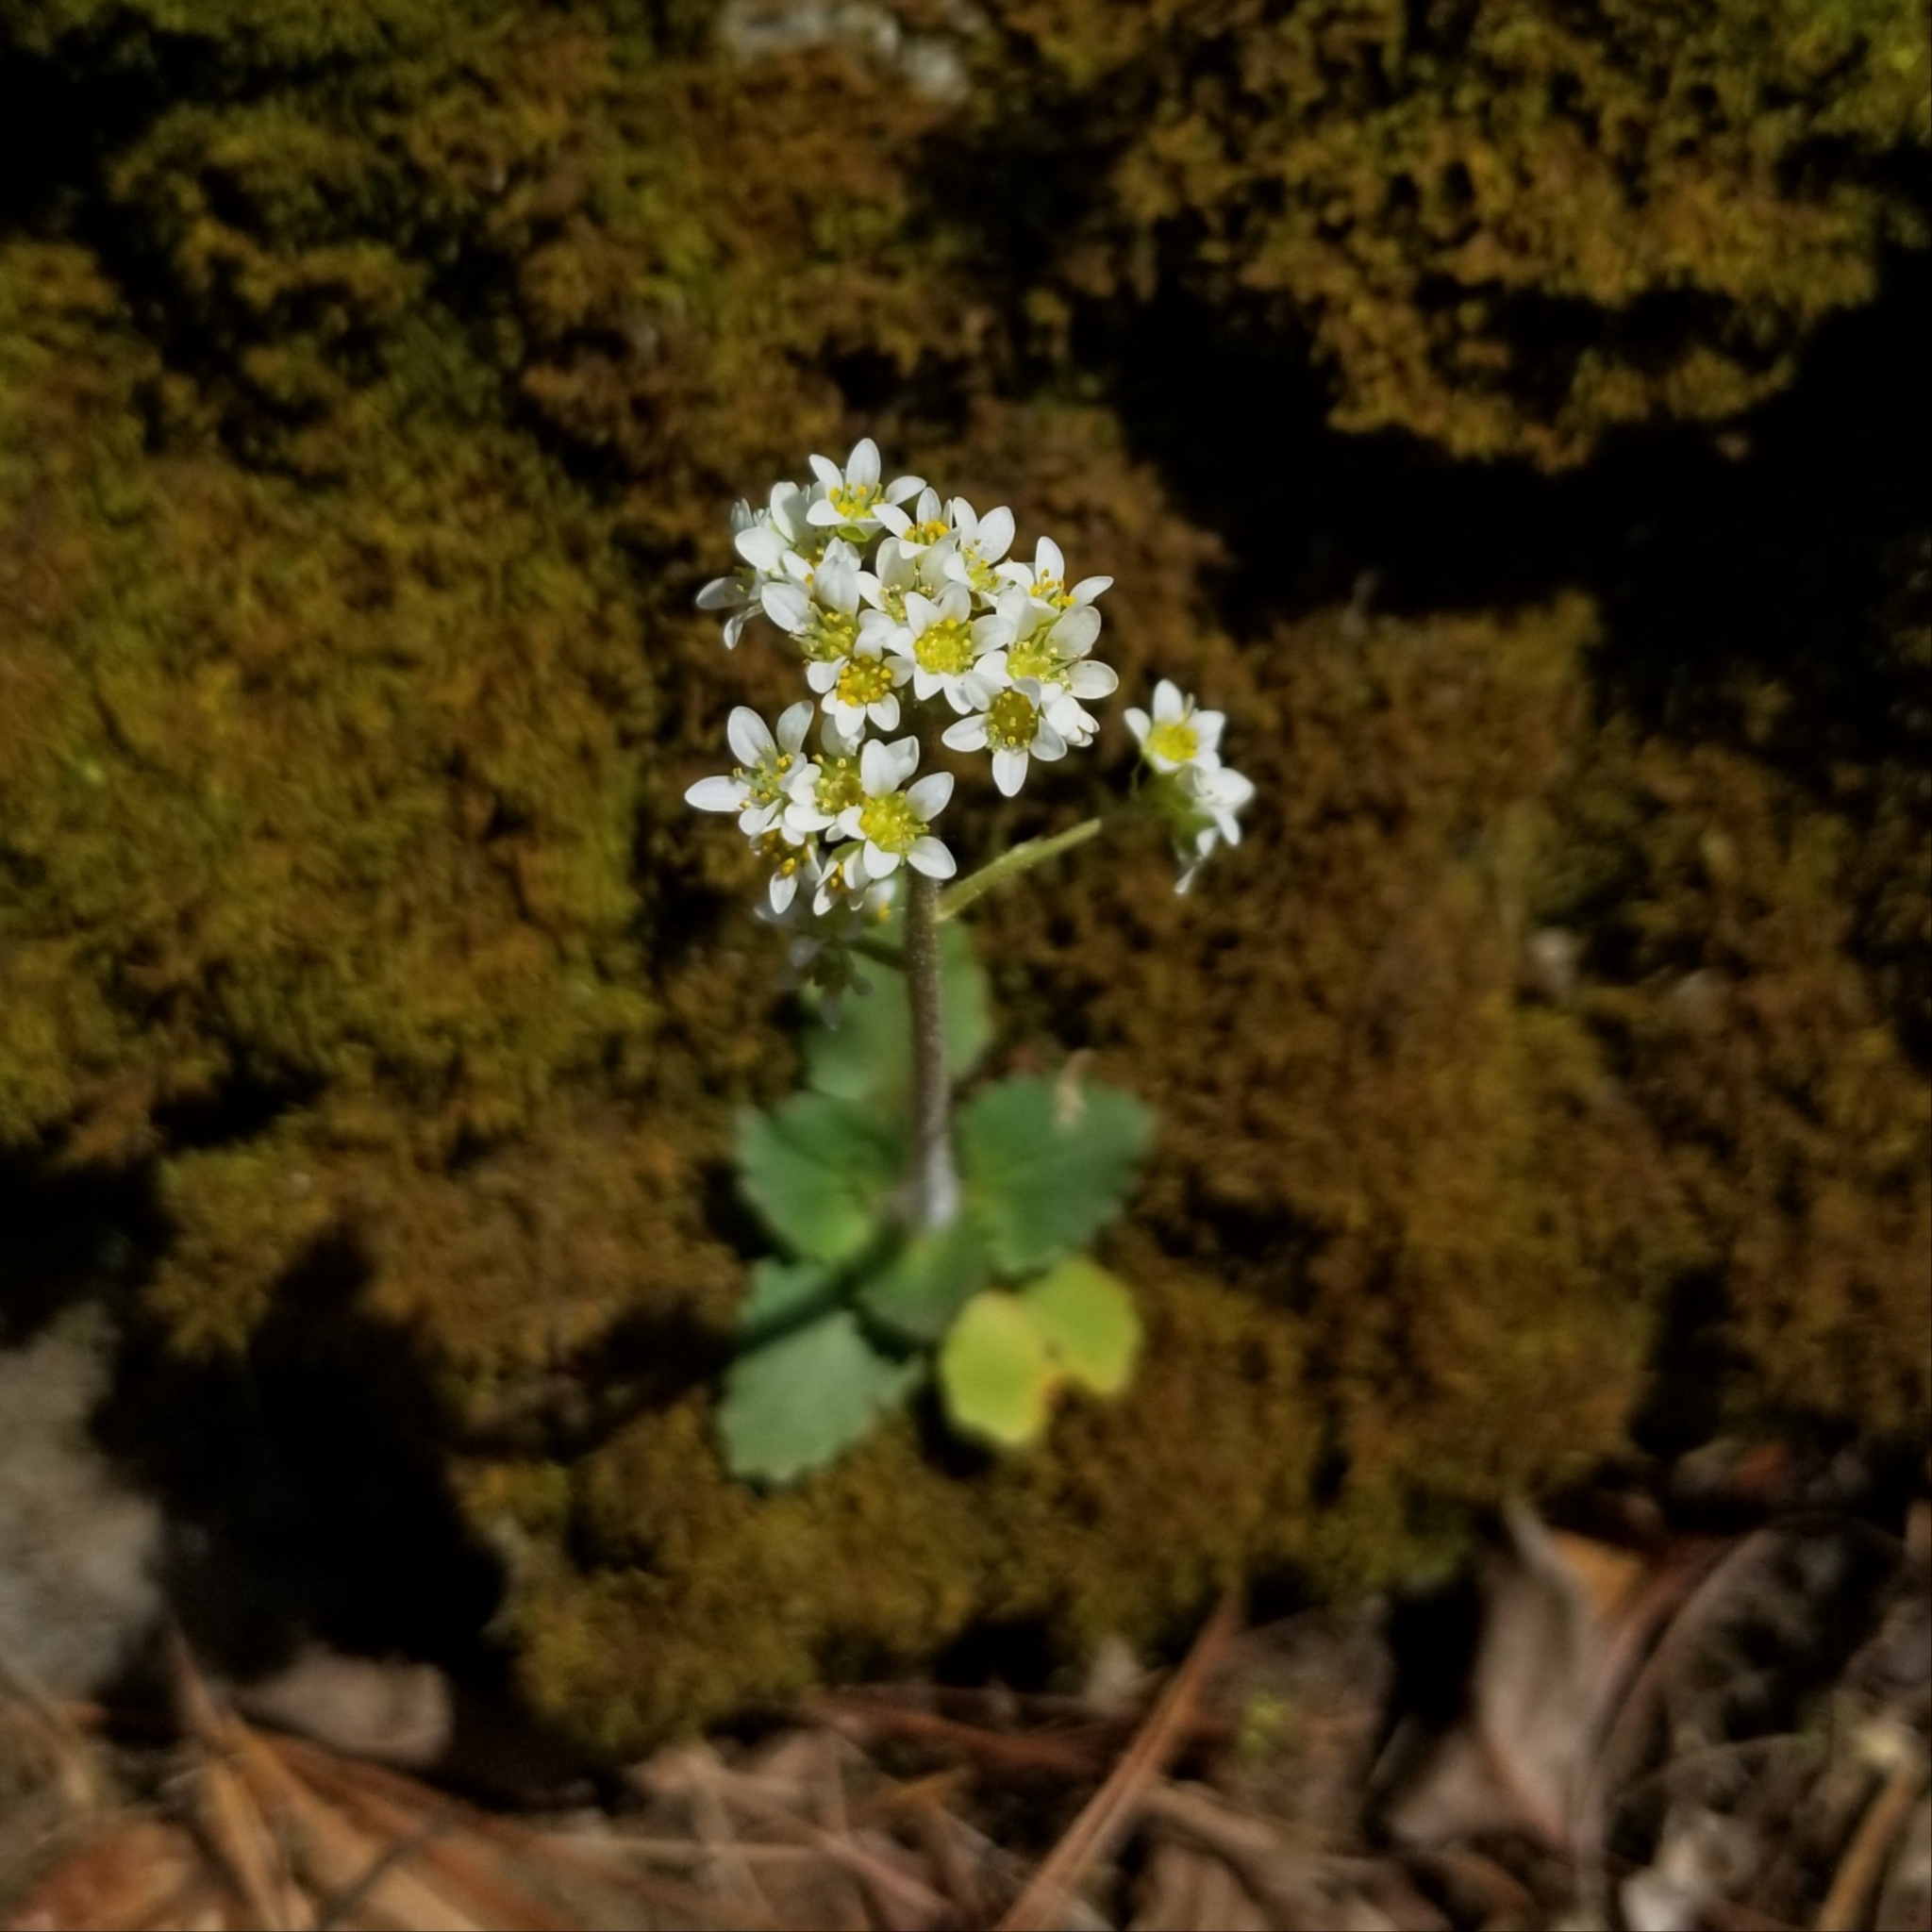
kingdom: Plantae
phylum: Tracheophyta
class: Magnoliopsida
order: Saxifragales
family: Saxifragaceae
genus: Micranthes
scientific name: Micranthes virginiensis
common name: Early saxifrage
